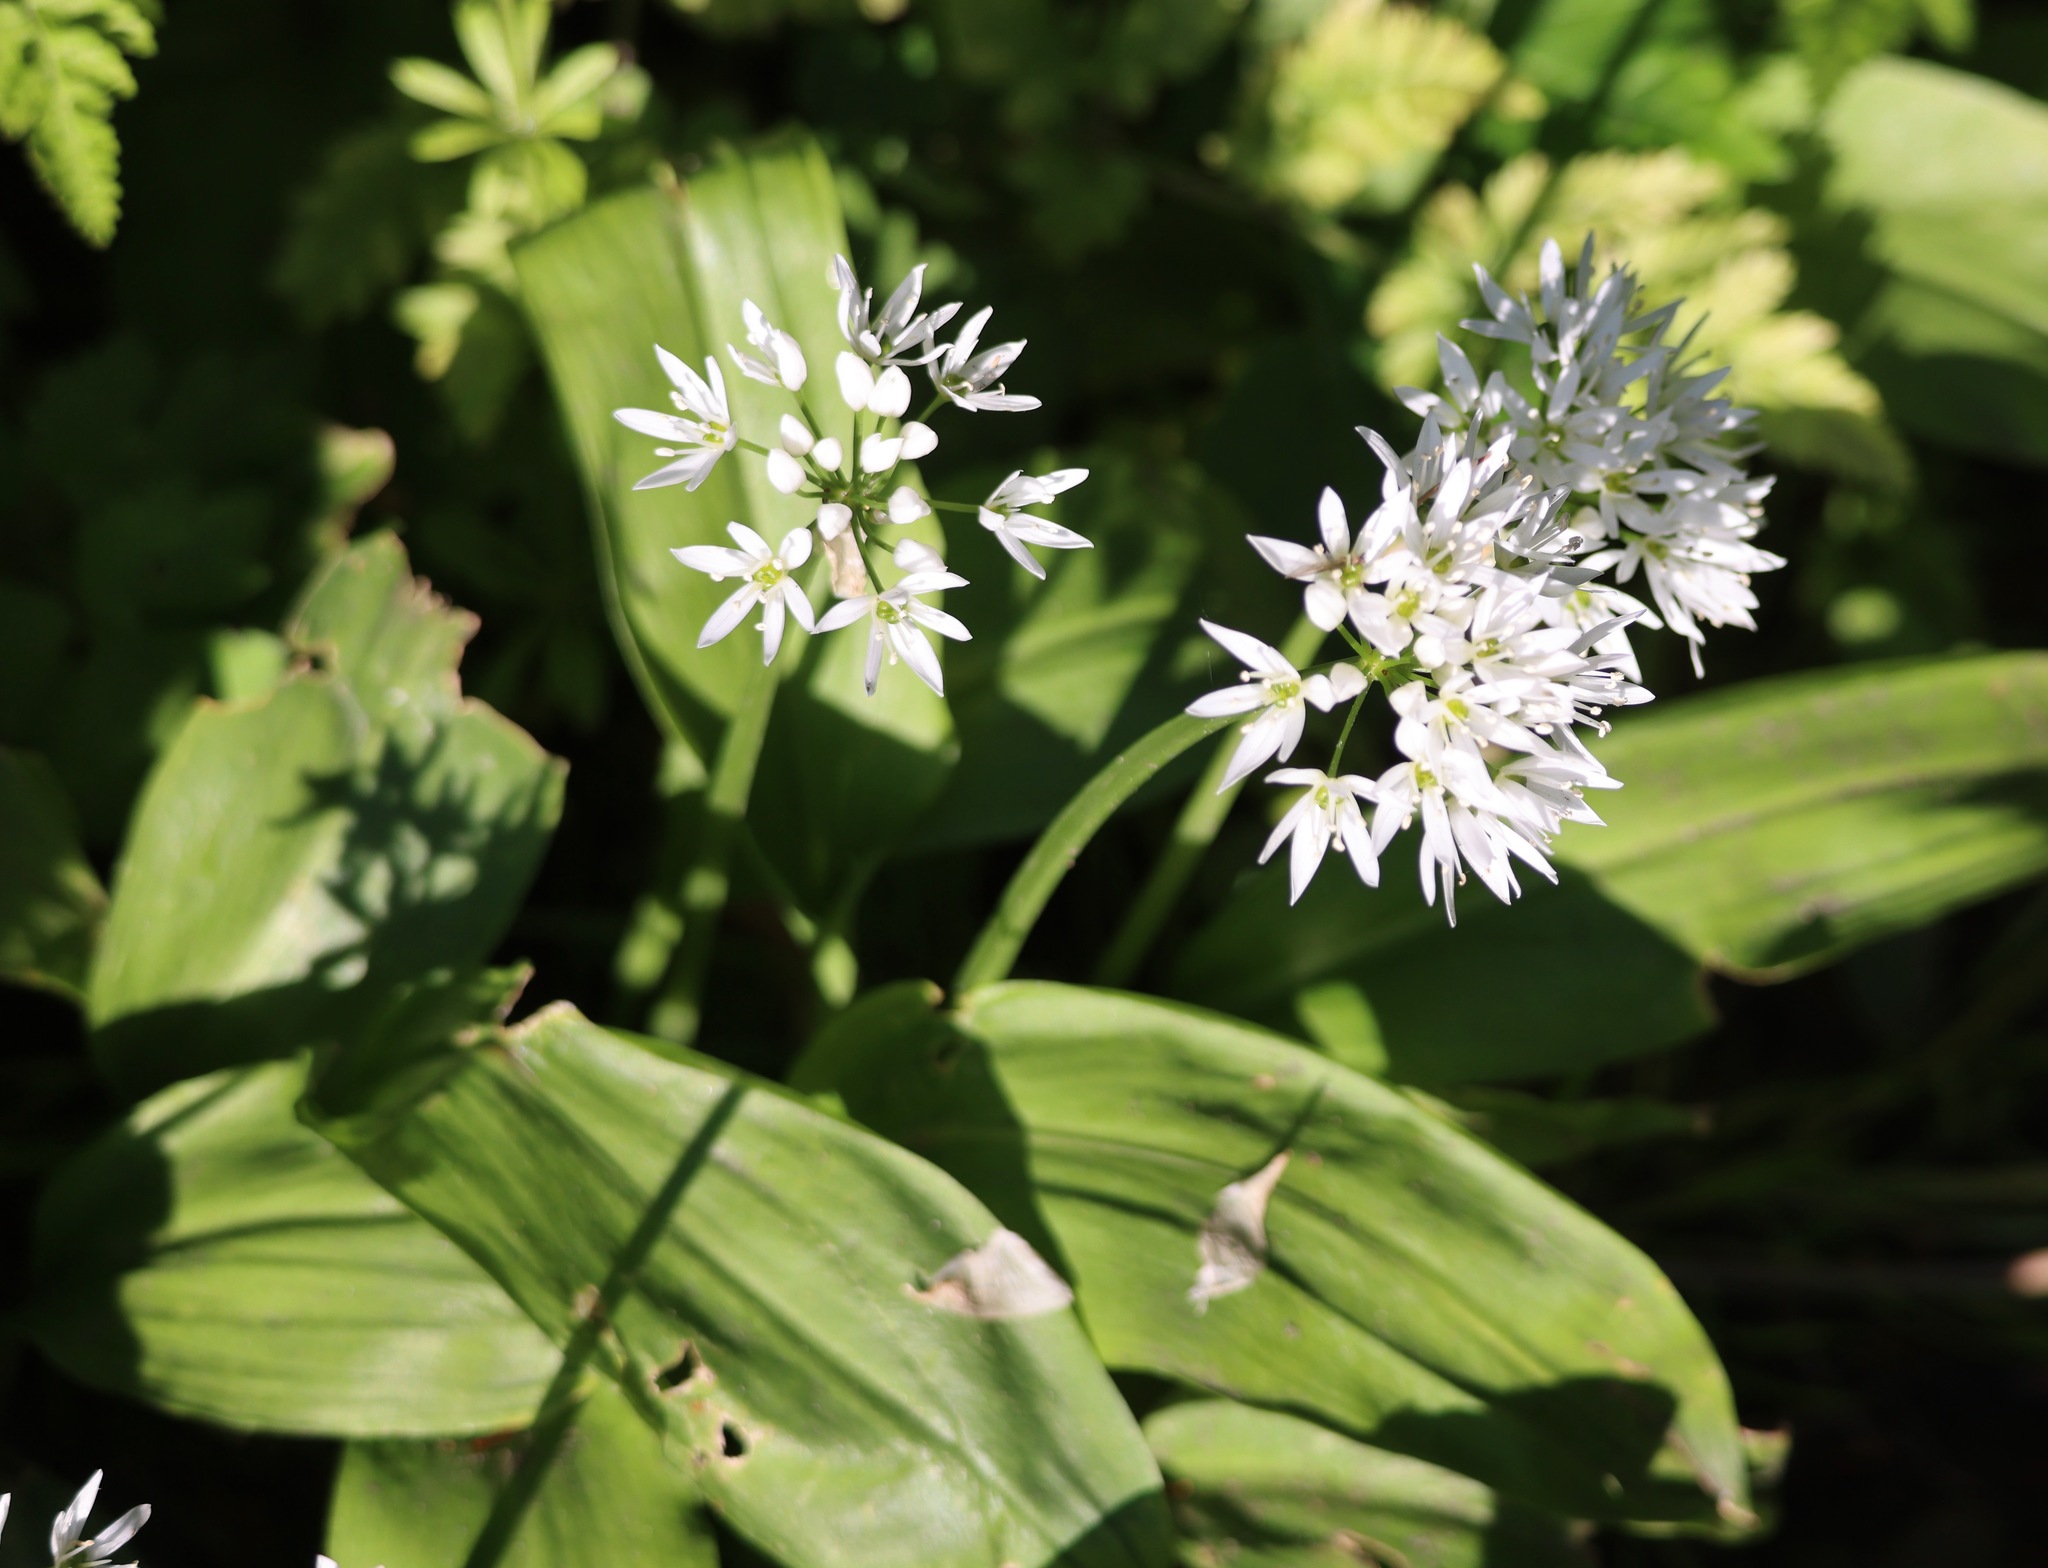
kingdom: Plantae
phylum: Tracheophyta
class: Liliopsida
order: Asparagales
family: Amaryllidaceae
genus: Allium
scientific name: Allium ursinum
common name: Ramsons
